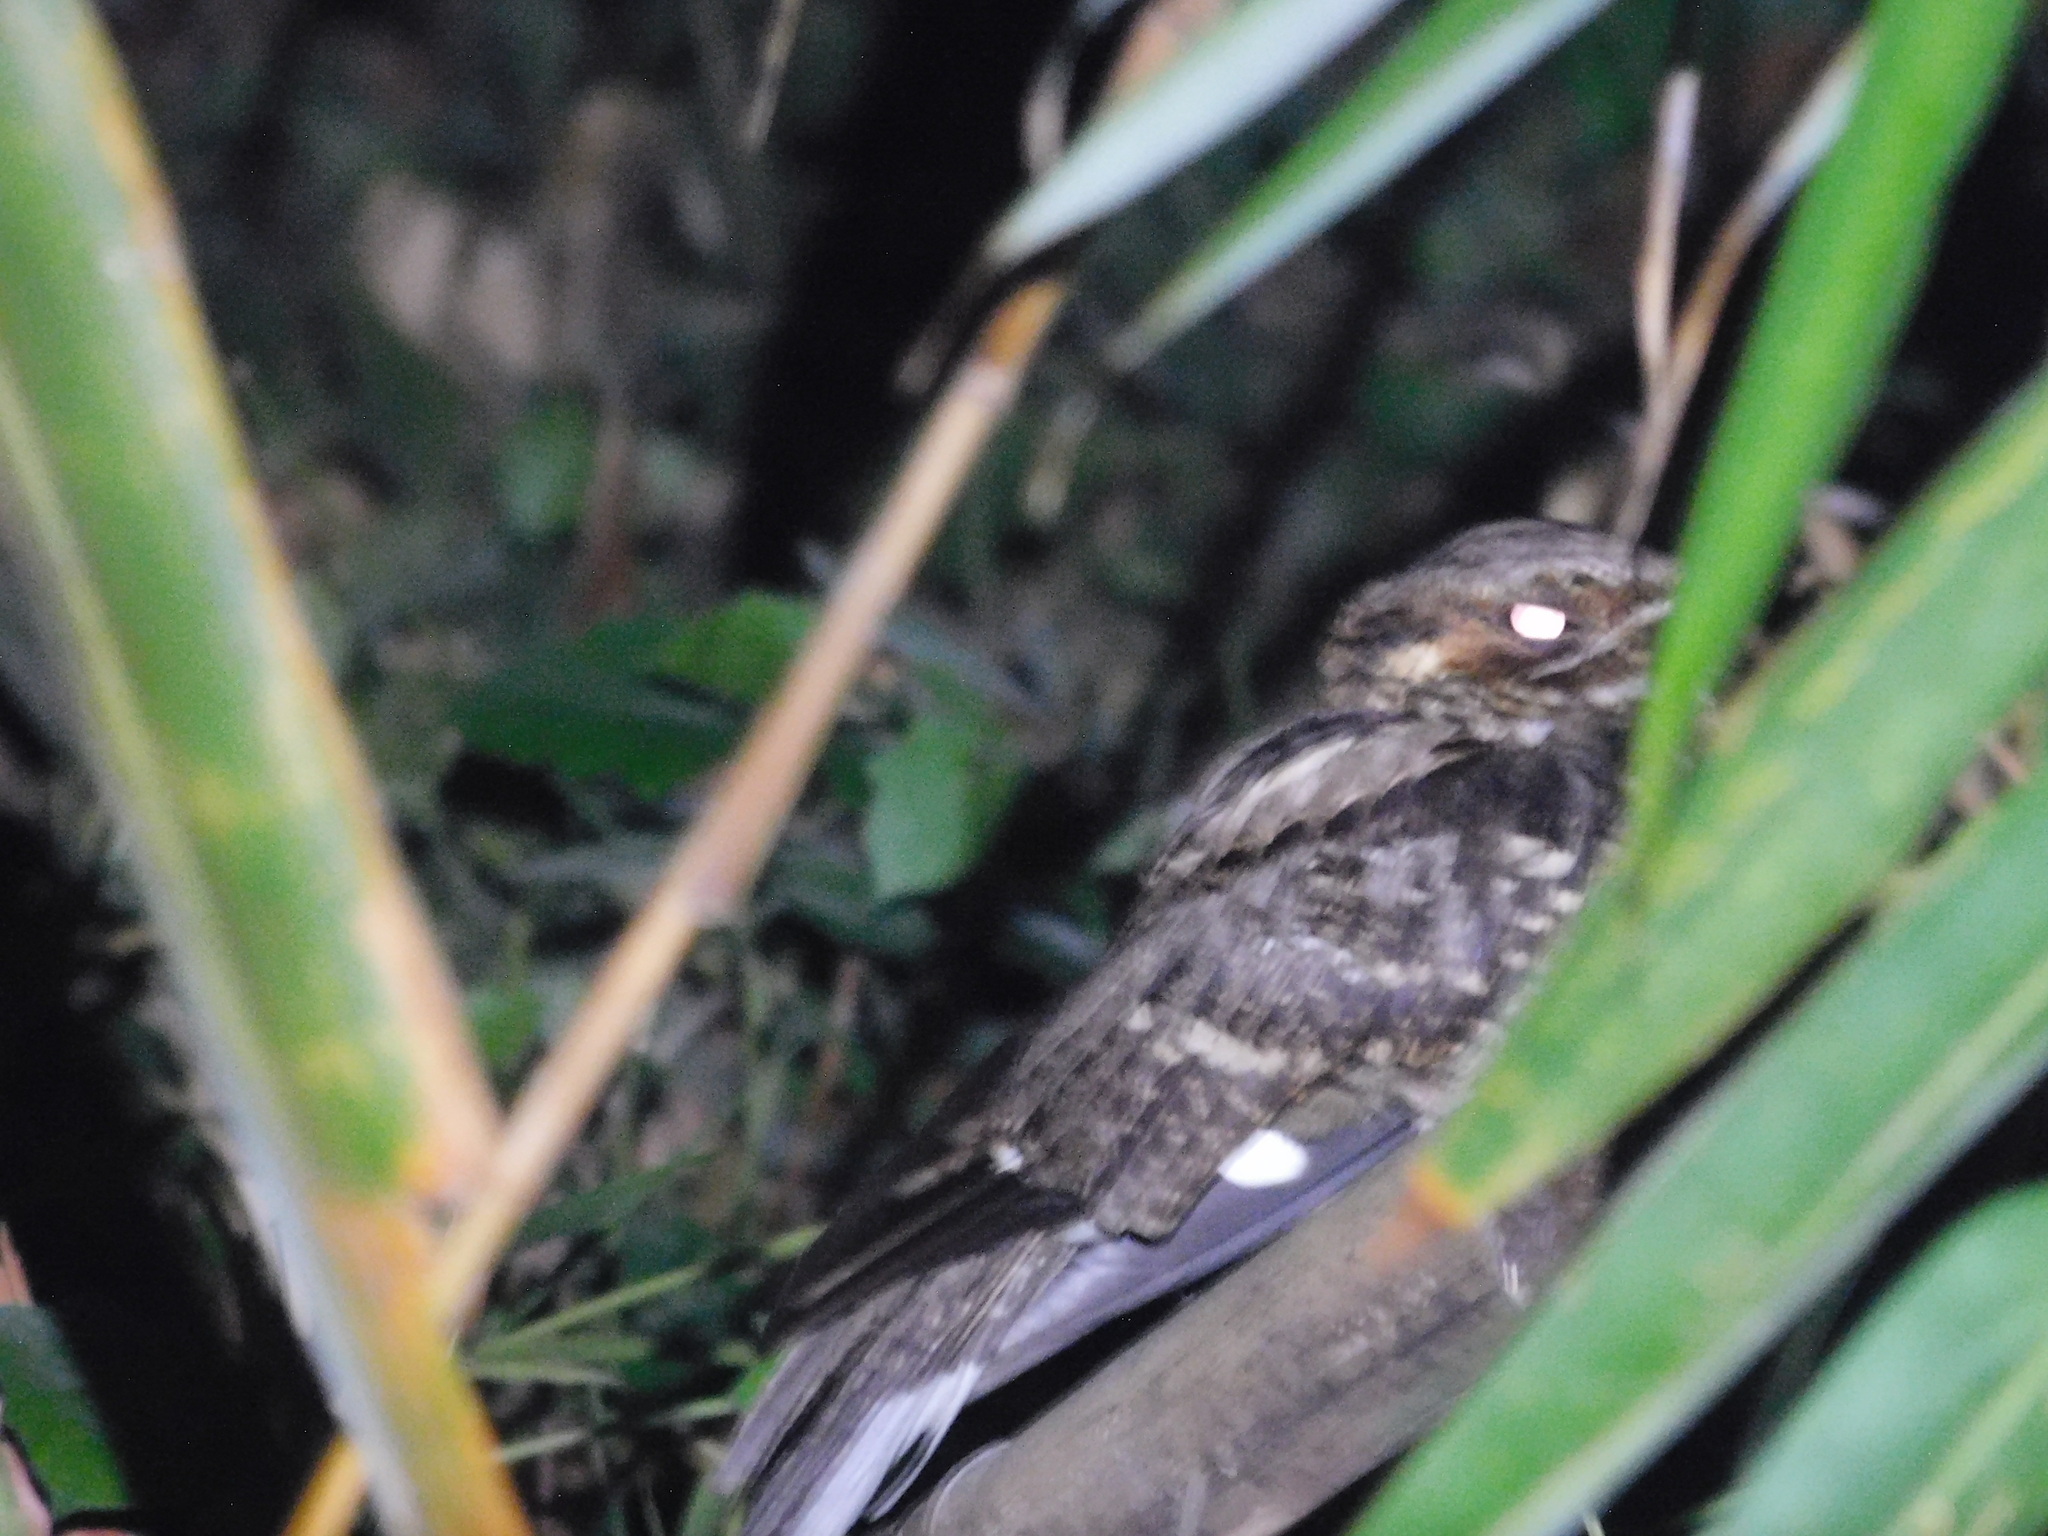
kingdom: Animalia
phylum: Chordata
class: Aves
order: Caprimulgiformes
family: Caprimulgidae
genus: Caprimulgus
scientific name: Caprimulgus macrurus
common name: Large-tailed nightjar
